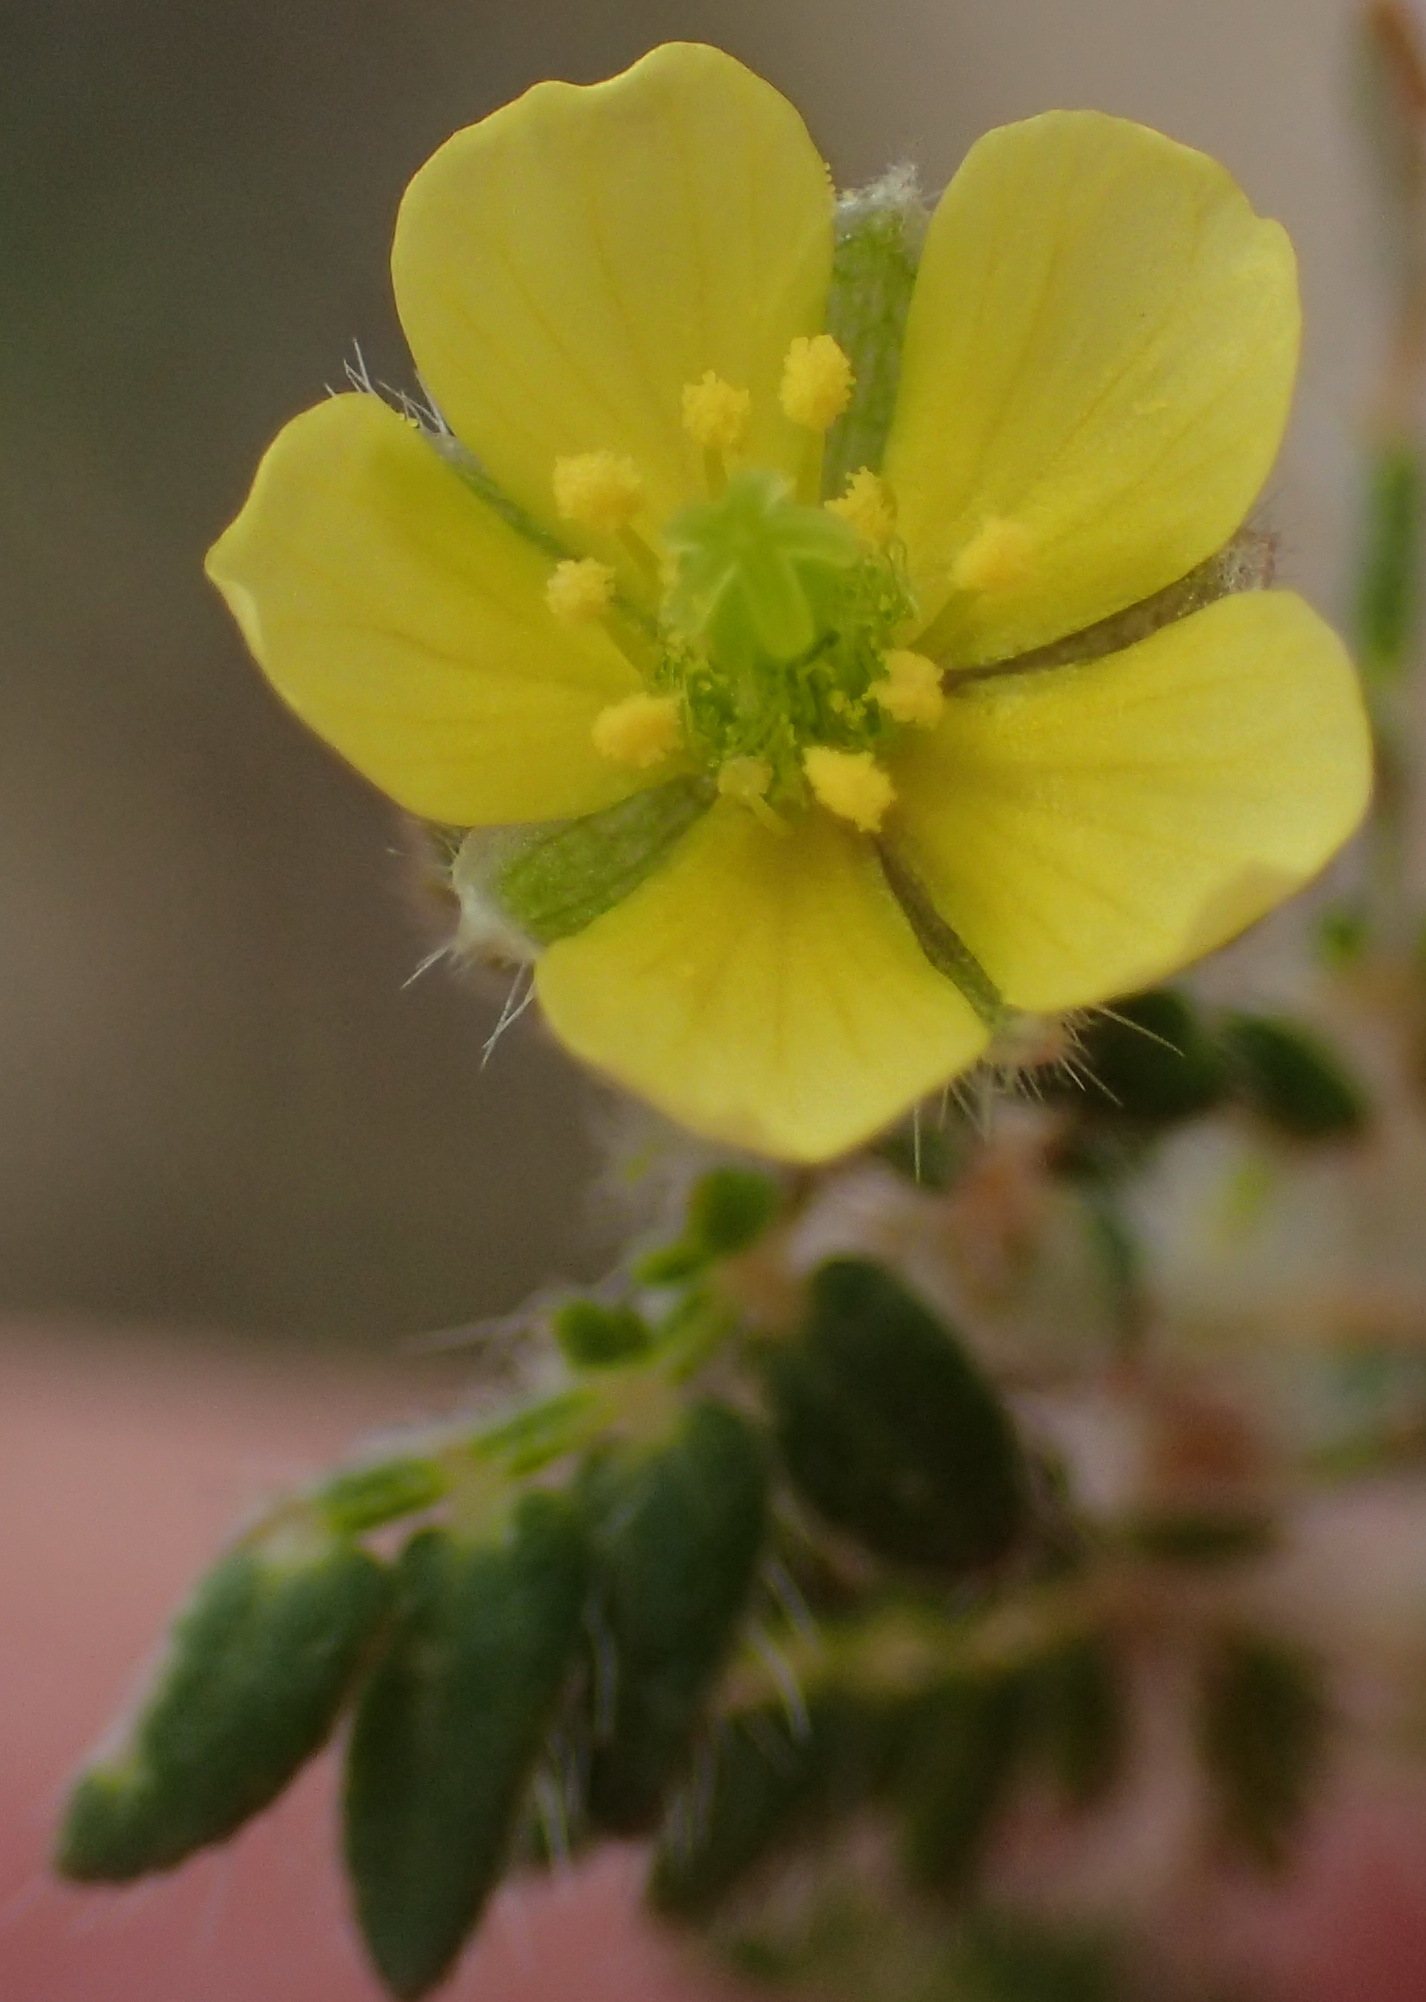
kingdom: Plantae
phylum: Tracheophyta
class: Magnoliopsida
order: Zygophyllales
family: Zygophyllaceae
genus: Tribulus
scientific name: Tribulus terrestris
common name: Puncturevine
